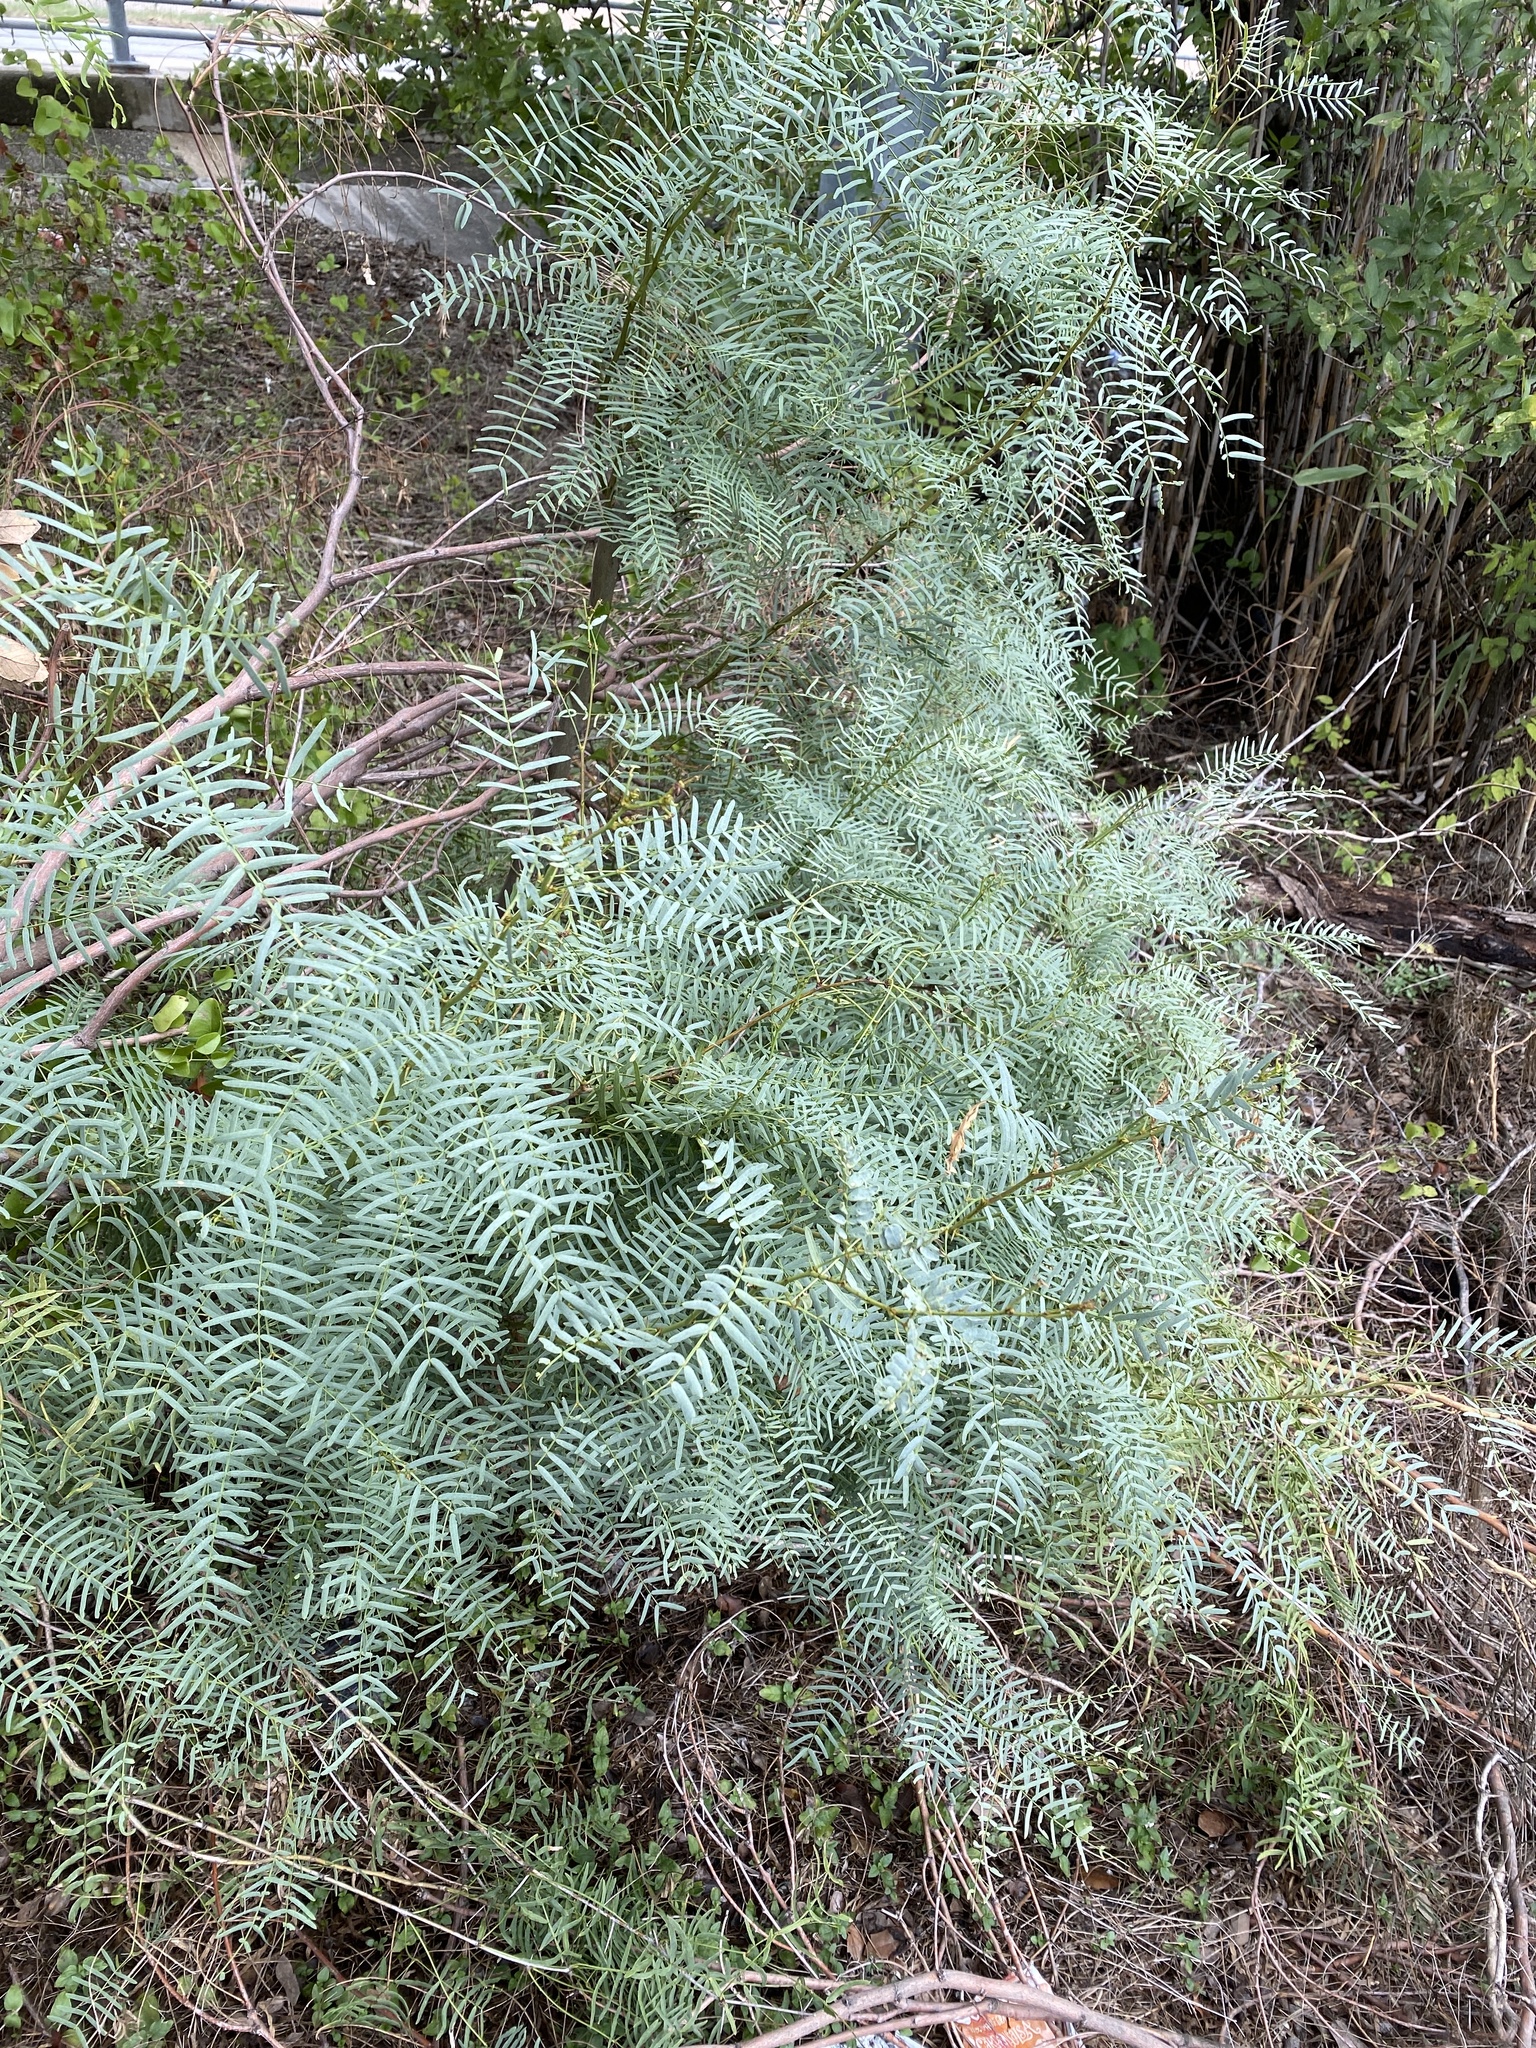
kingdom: Plantae
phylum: Tracheophyta
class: Magnoliopsida
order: Fabales
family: Fabaceae
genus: Prosopis
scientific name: Prosopis glandulosa
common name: Honey mesquite
